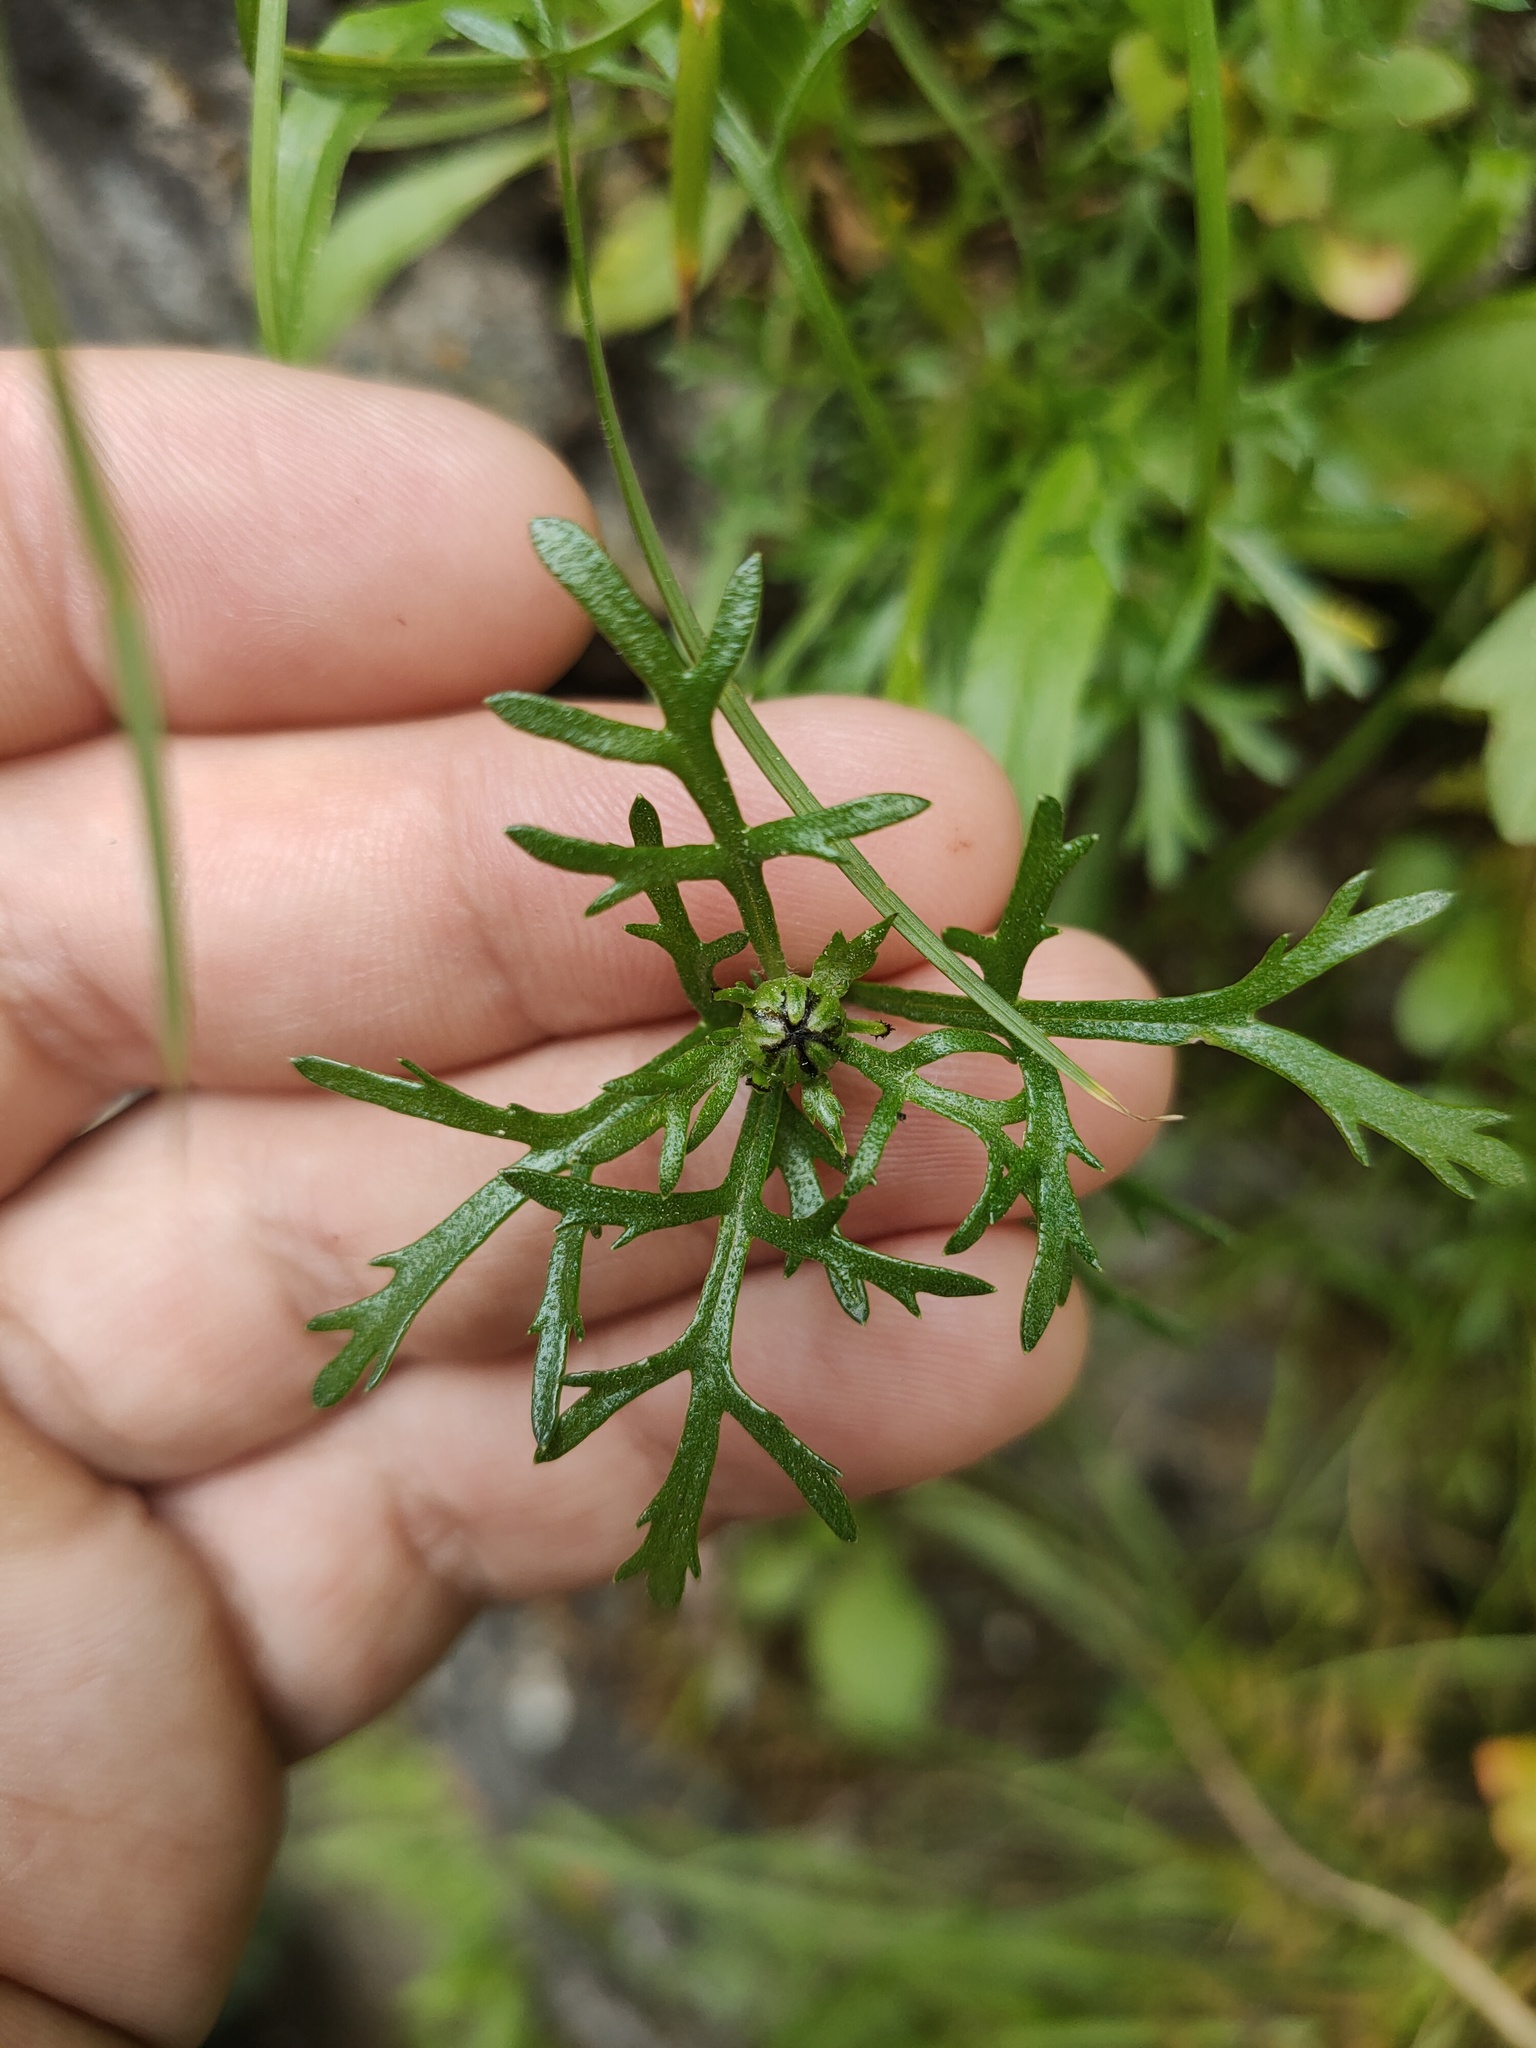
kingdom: Plantae
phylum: Tracheophyta
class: Magnoliopsida
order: Asterales
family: Asteraceae
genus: Chrysanthemum
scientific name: Chrysanthemum zawadzkii
